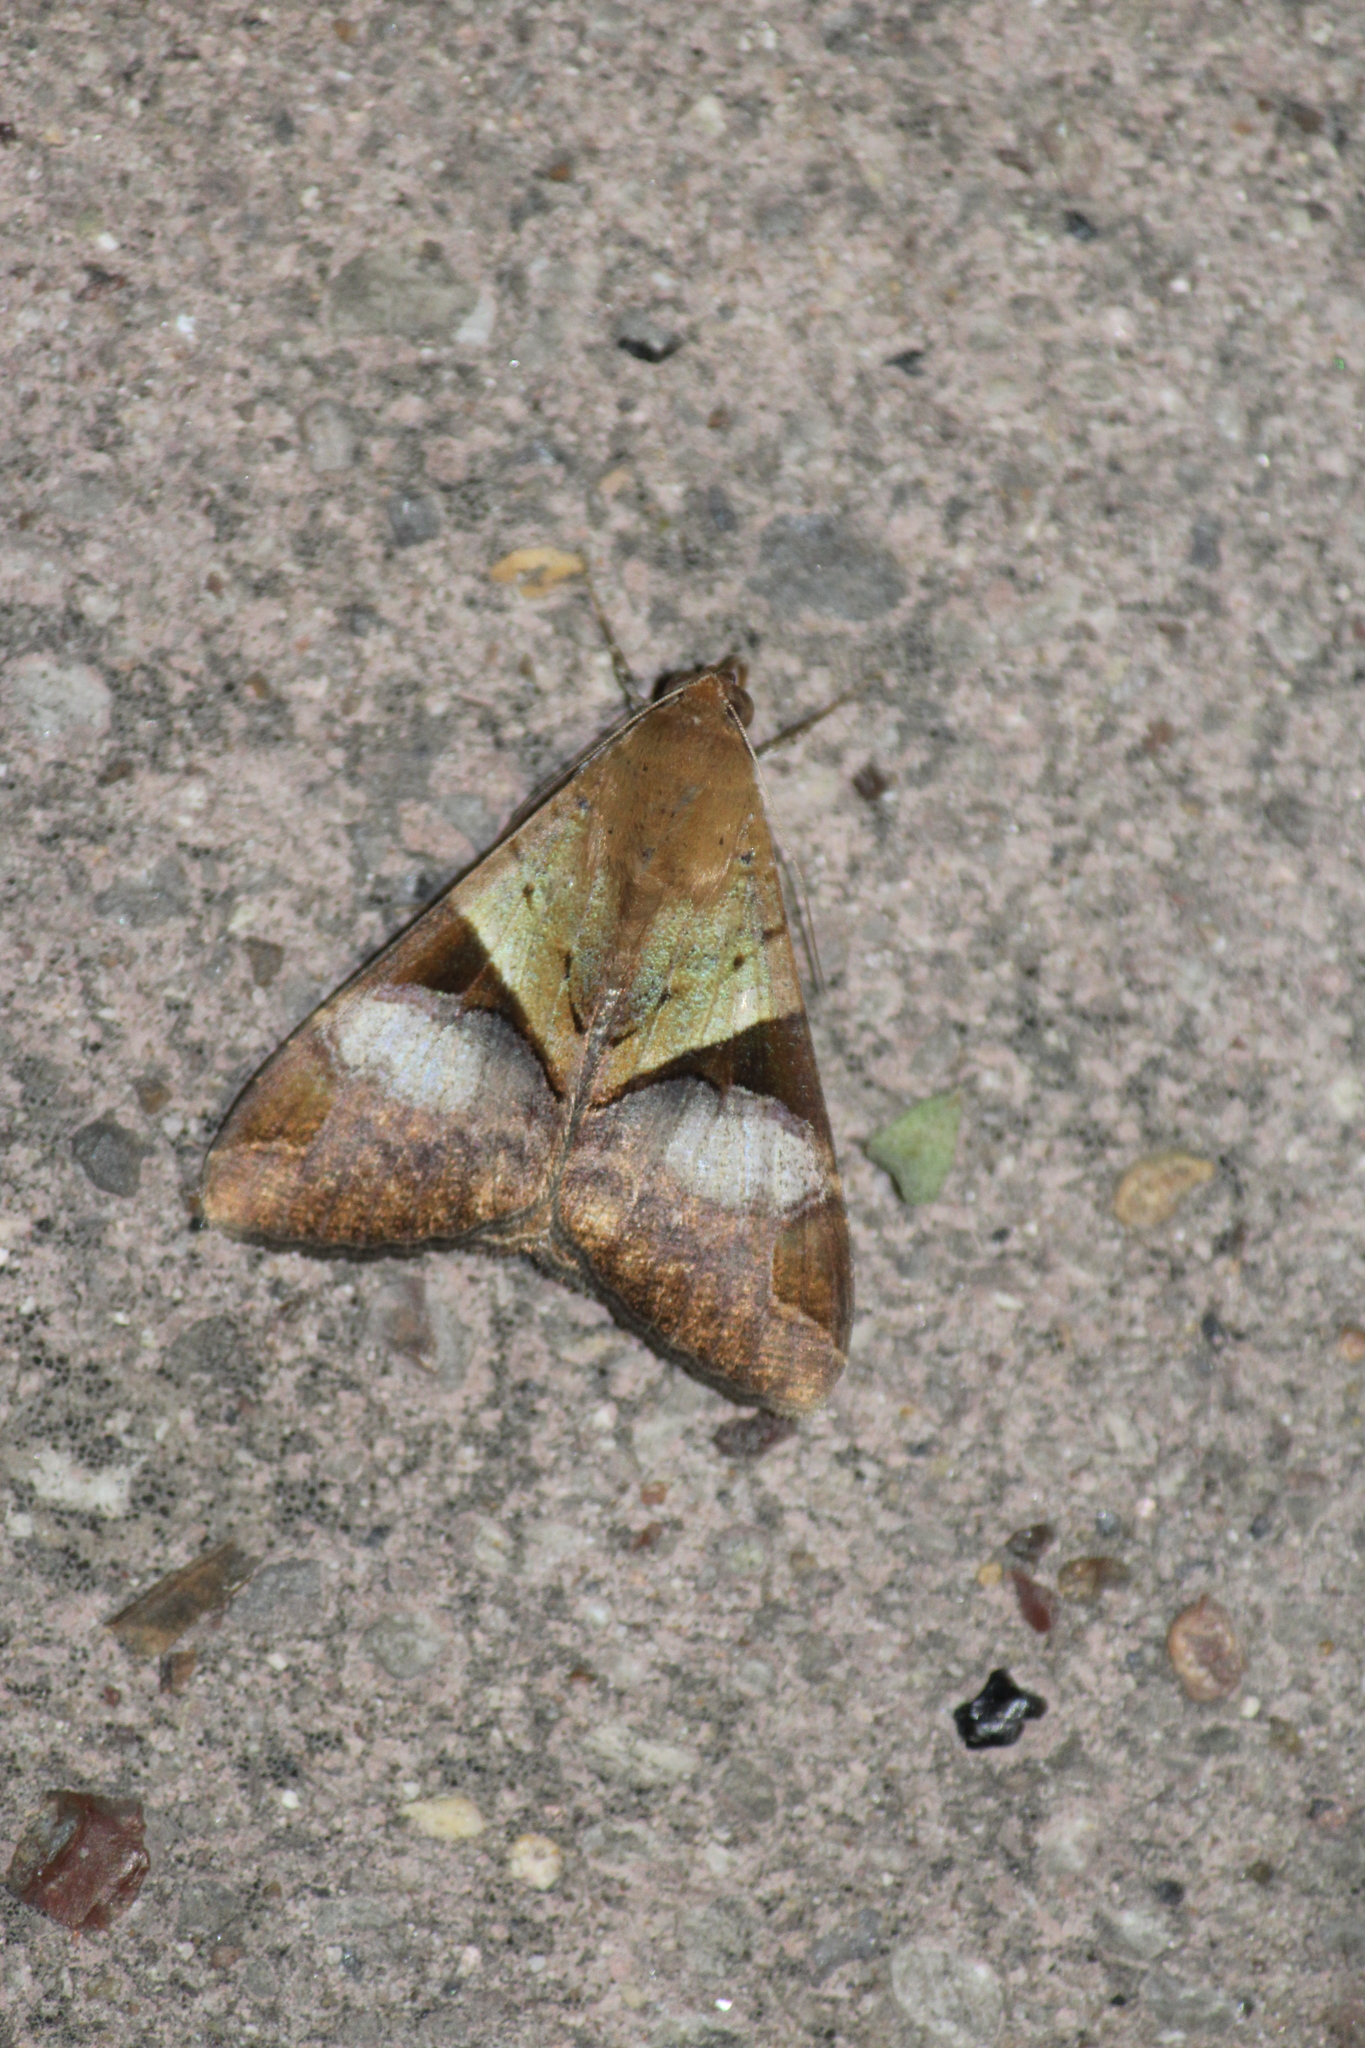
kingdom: Animalia
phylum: Arthropoda
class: Insecta
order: Lepidoptera
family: Erebidae
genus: Melipotis
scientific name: Melipotis fasciolaris
